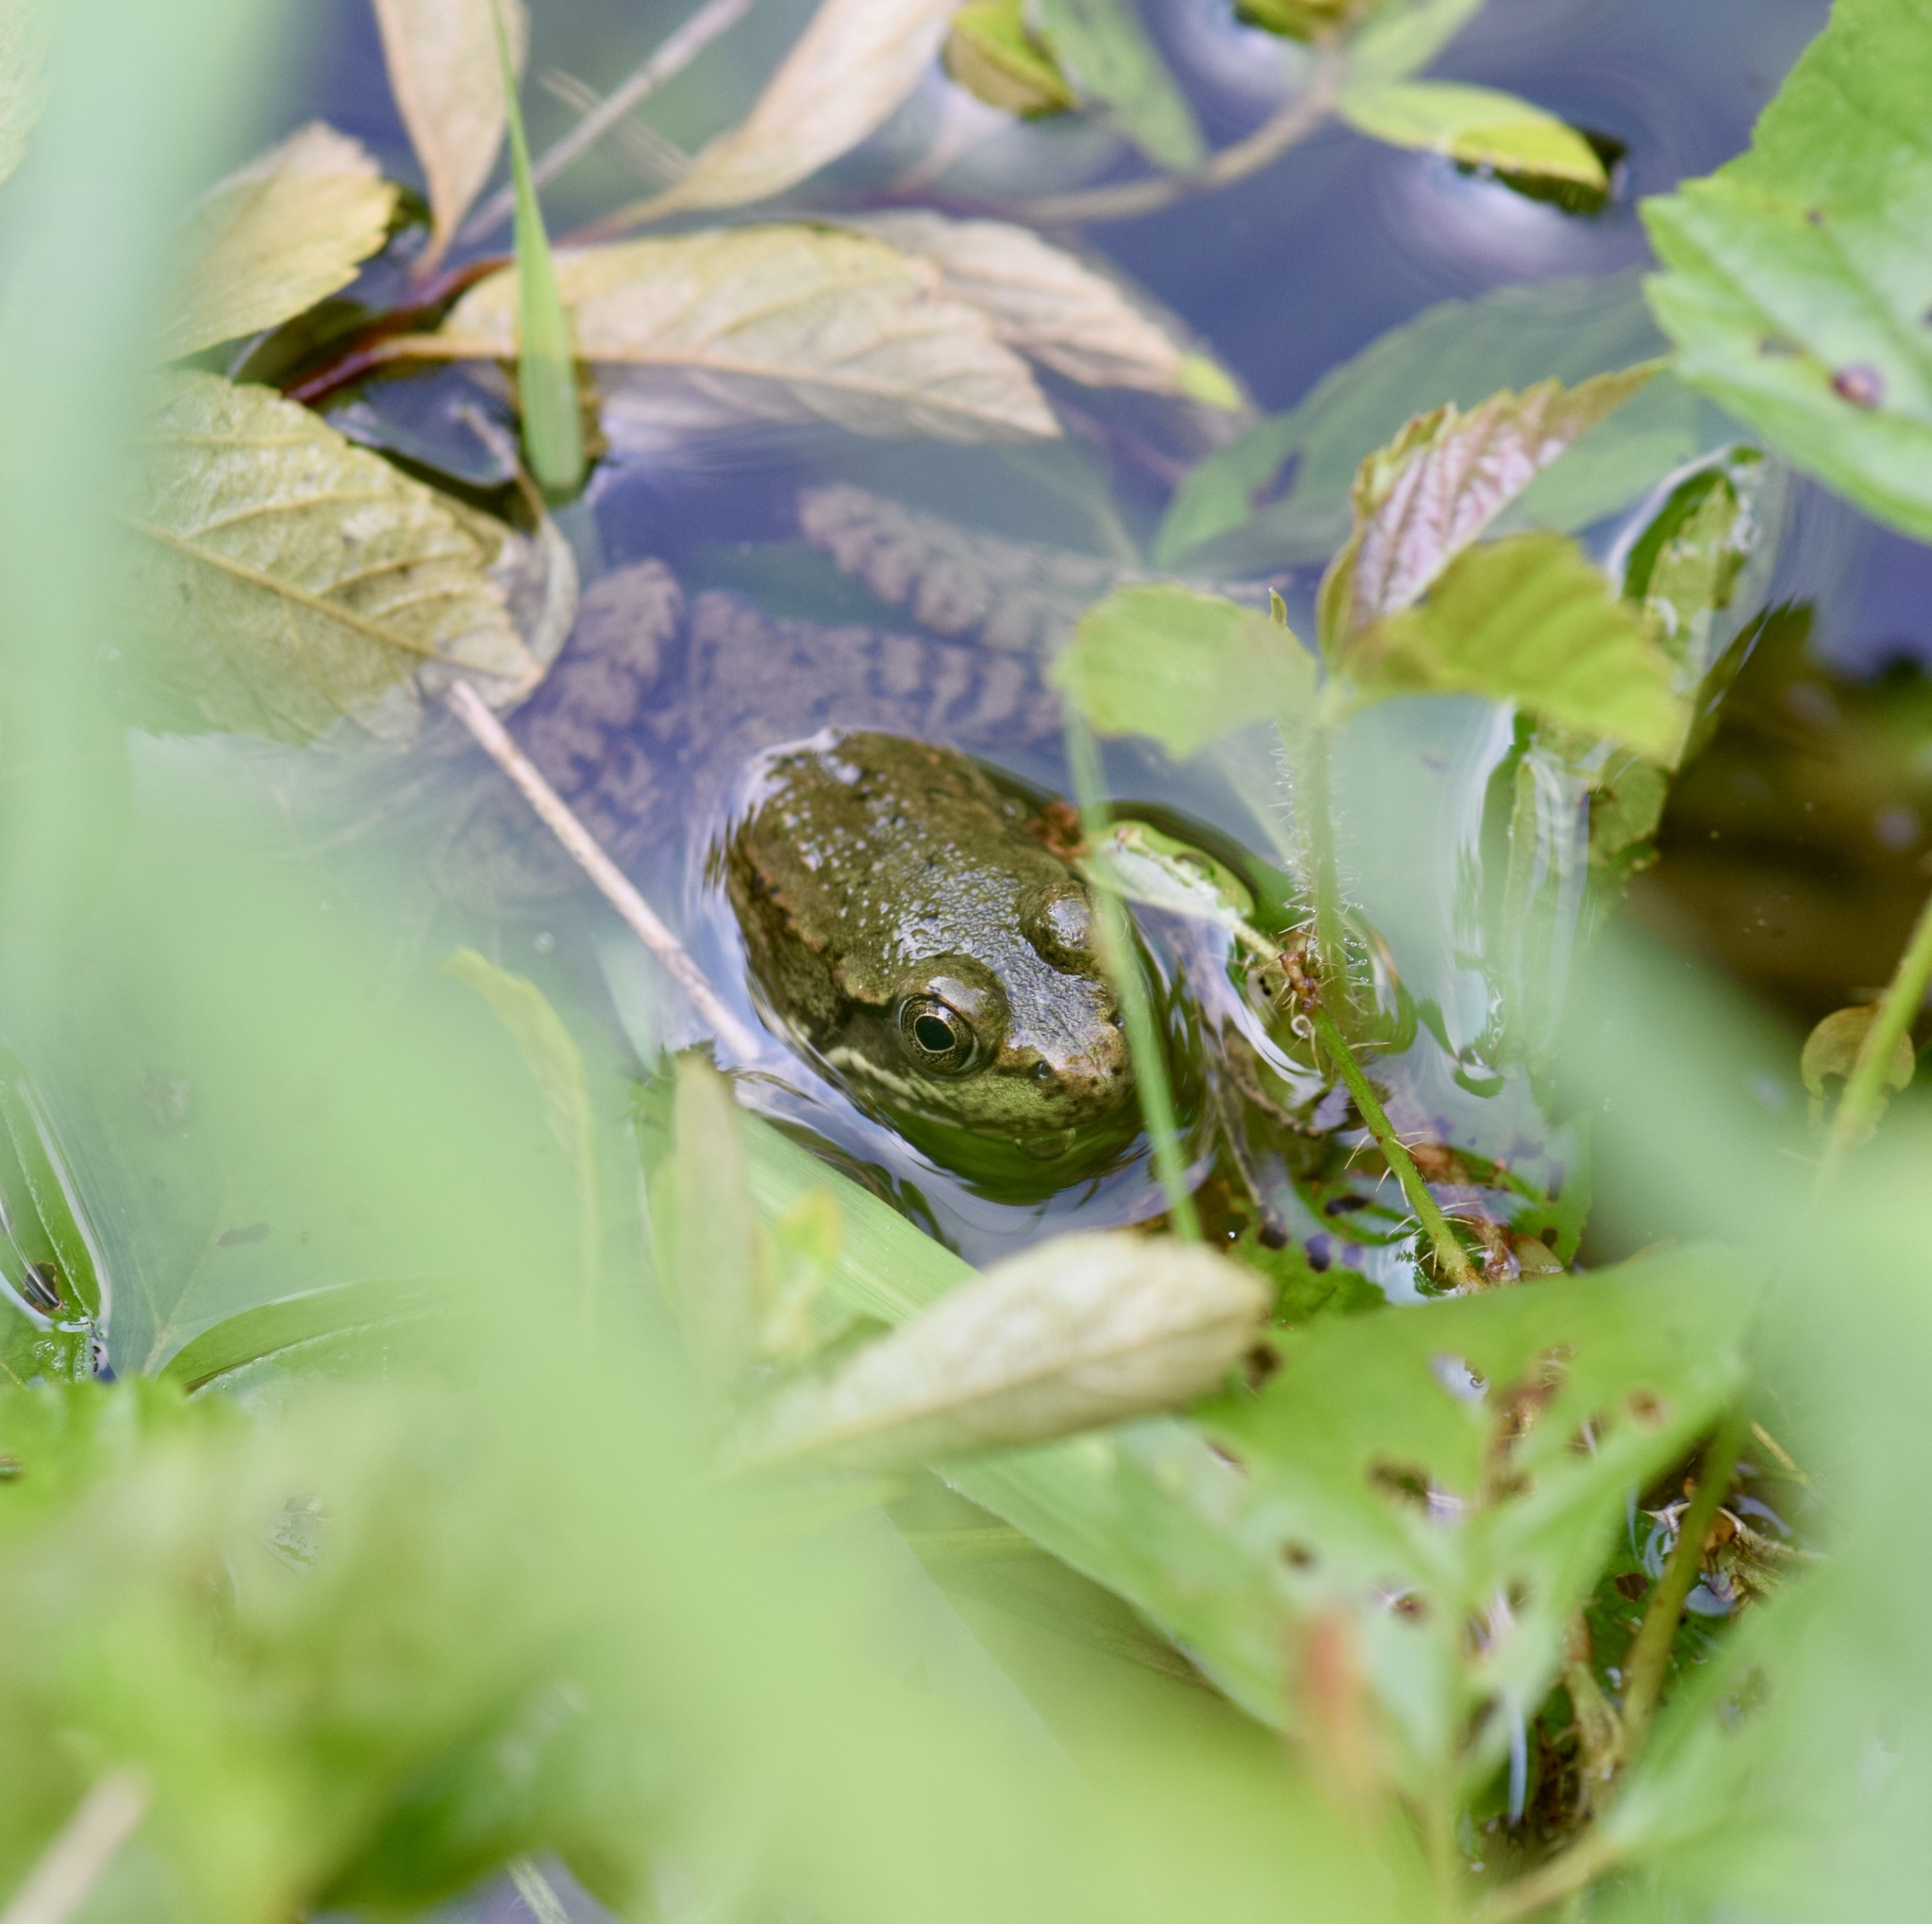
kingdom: Animalia
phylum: Chordata
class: Amphibia
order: Anura
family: Ranidae
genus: Lithobates
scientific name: Lithobates clamitans
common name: Green frog
